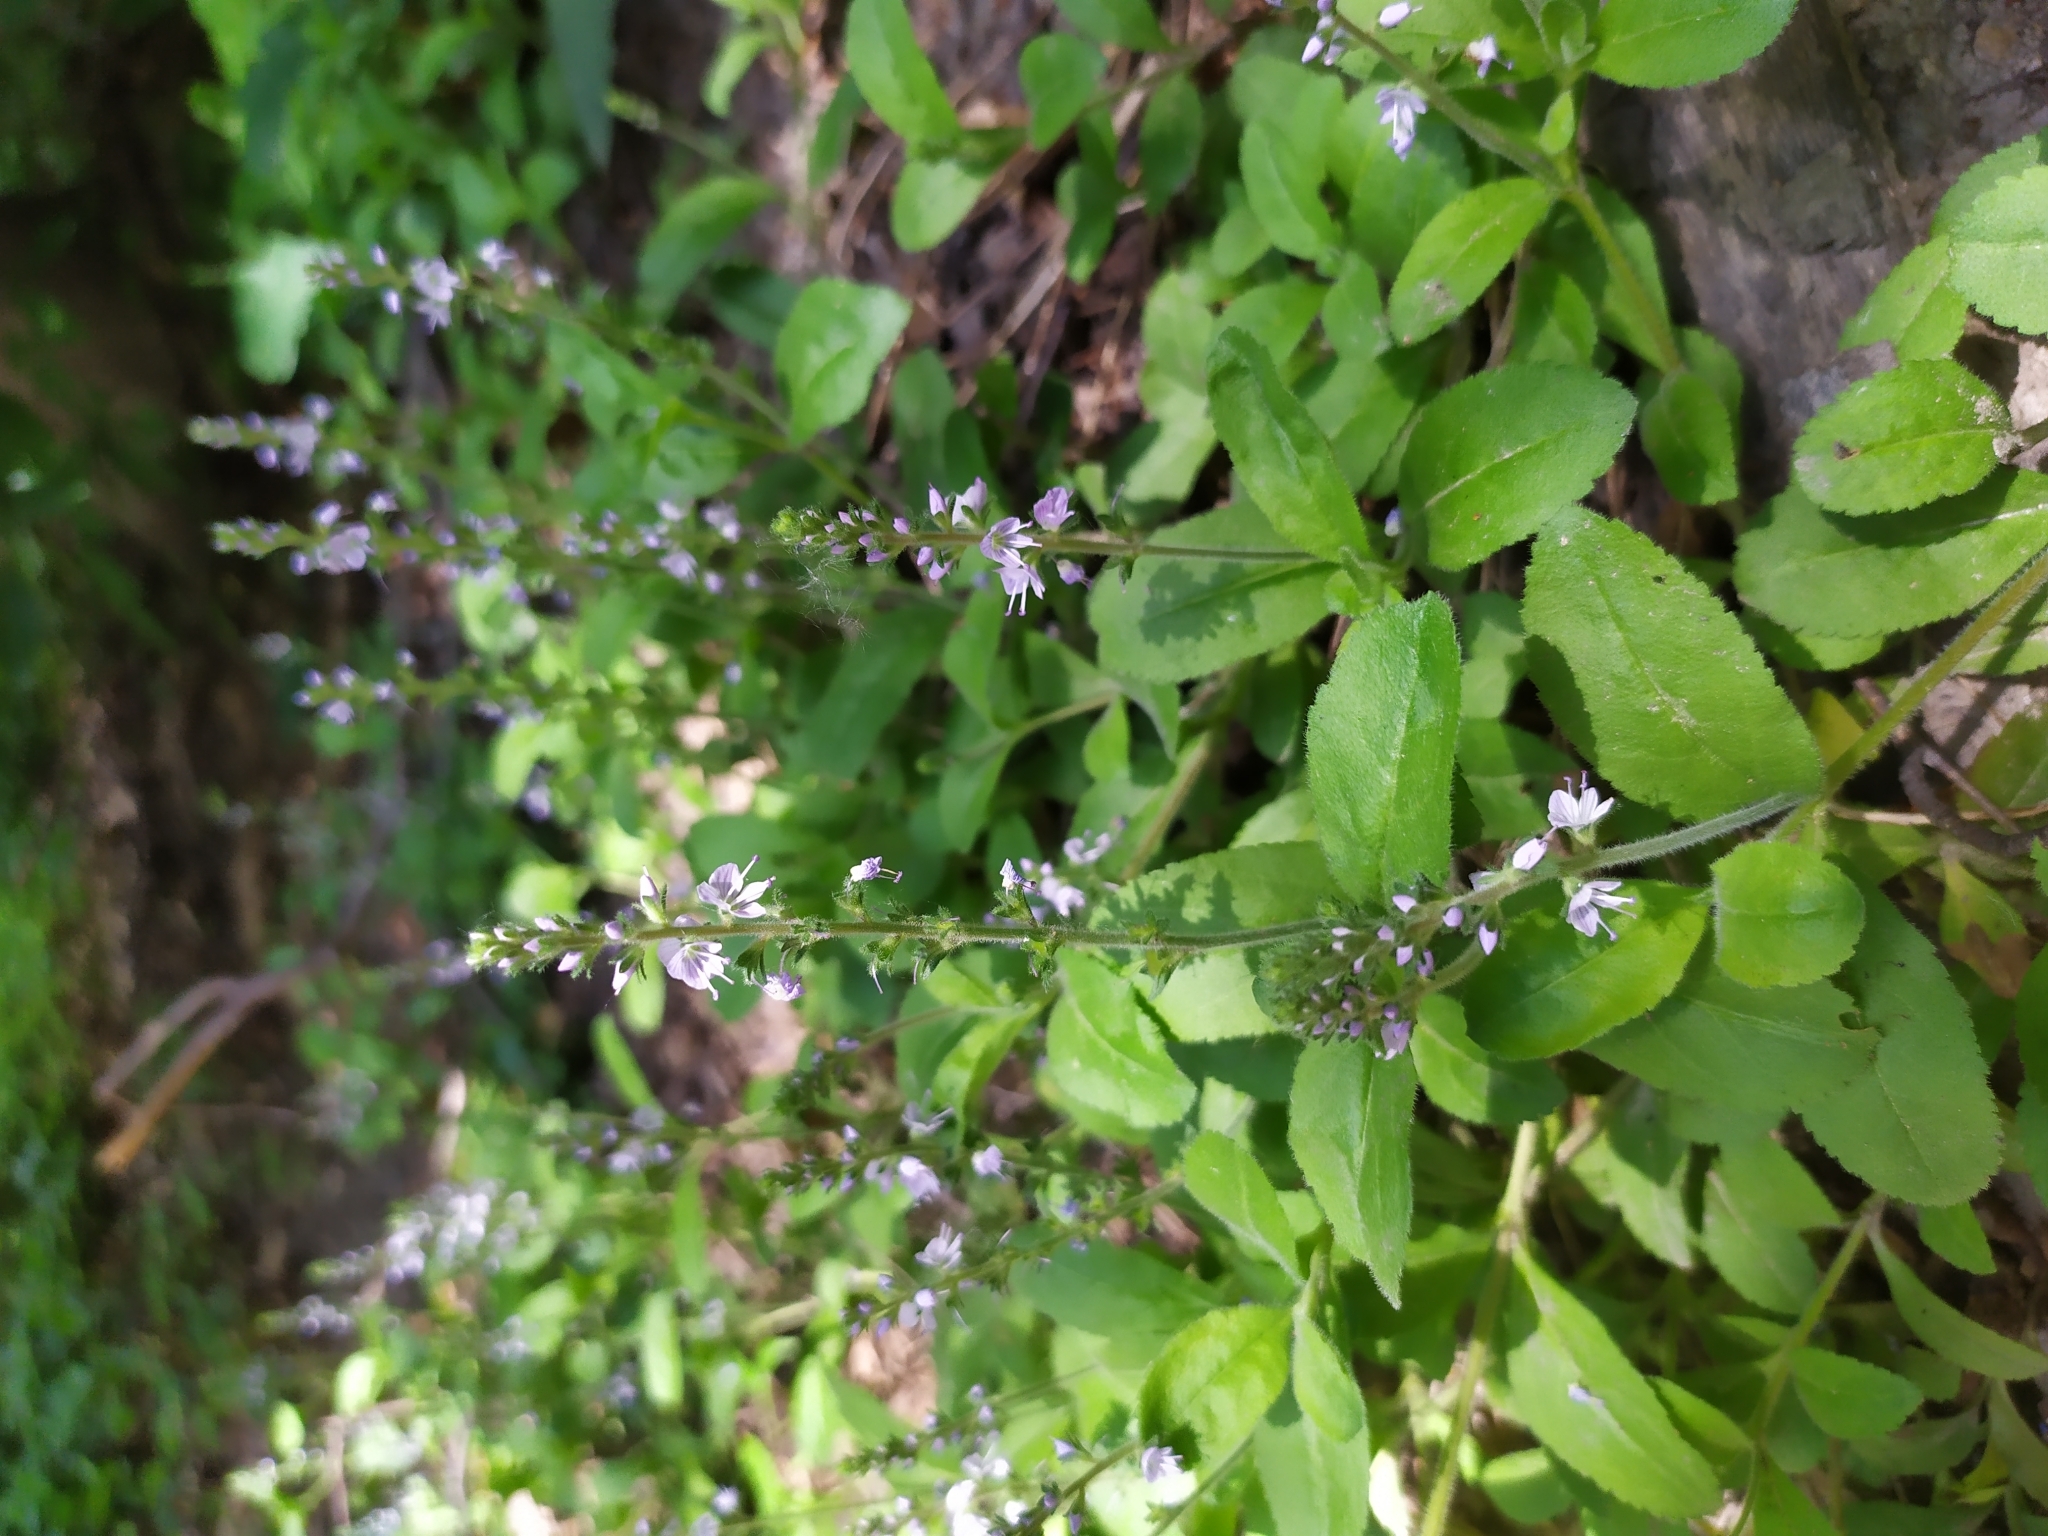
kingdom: Plantae
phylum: Tracheophyta
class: Magnoliopsida
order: Lamiales
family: Plantaginaceae
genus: Veronica
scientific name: Veronica officinalis
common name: Common speedwell
